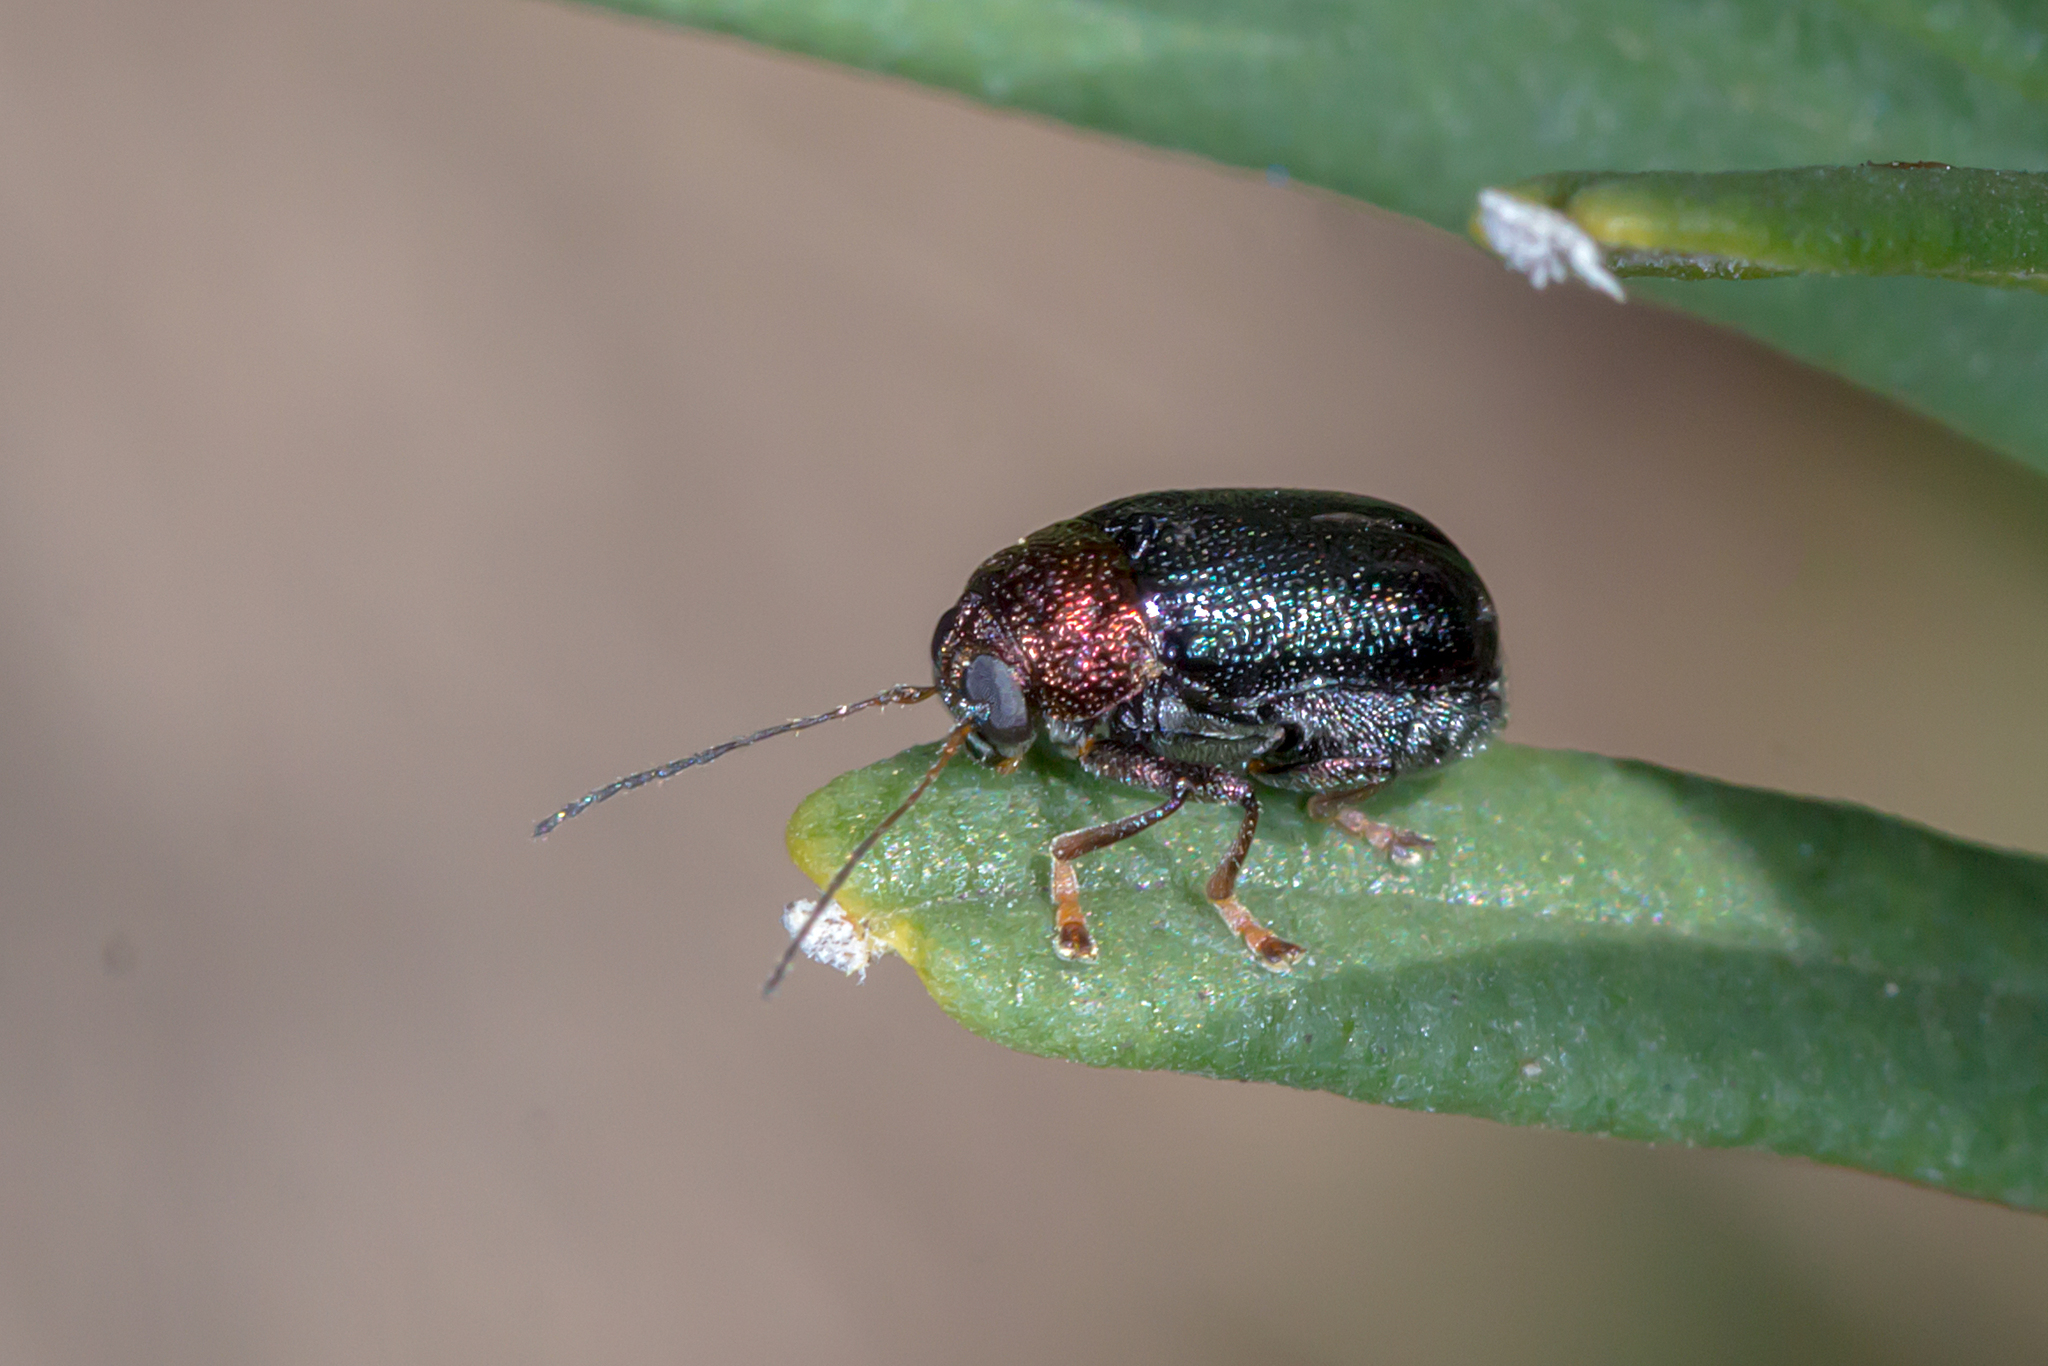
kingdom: Animalia
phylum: Arthropoda
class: Insecta
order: Coleoptera
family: Chrysomelidae
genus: Aporocera
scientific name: Aporocera
